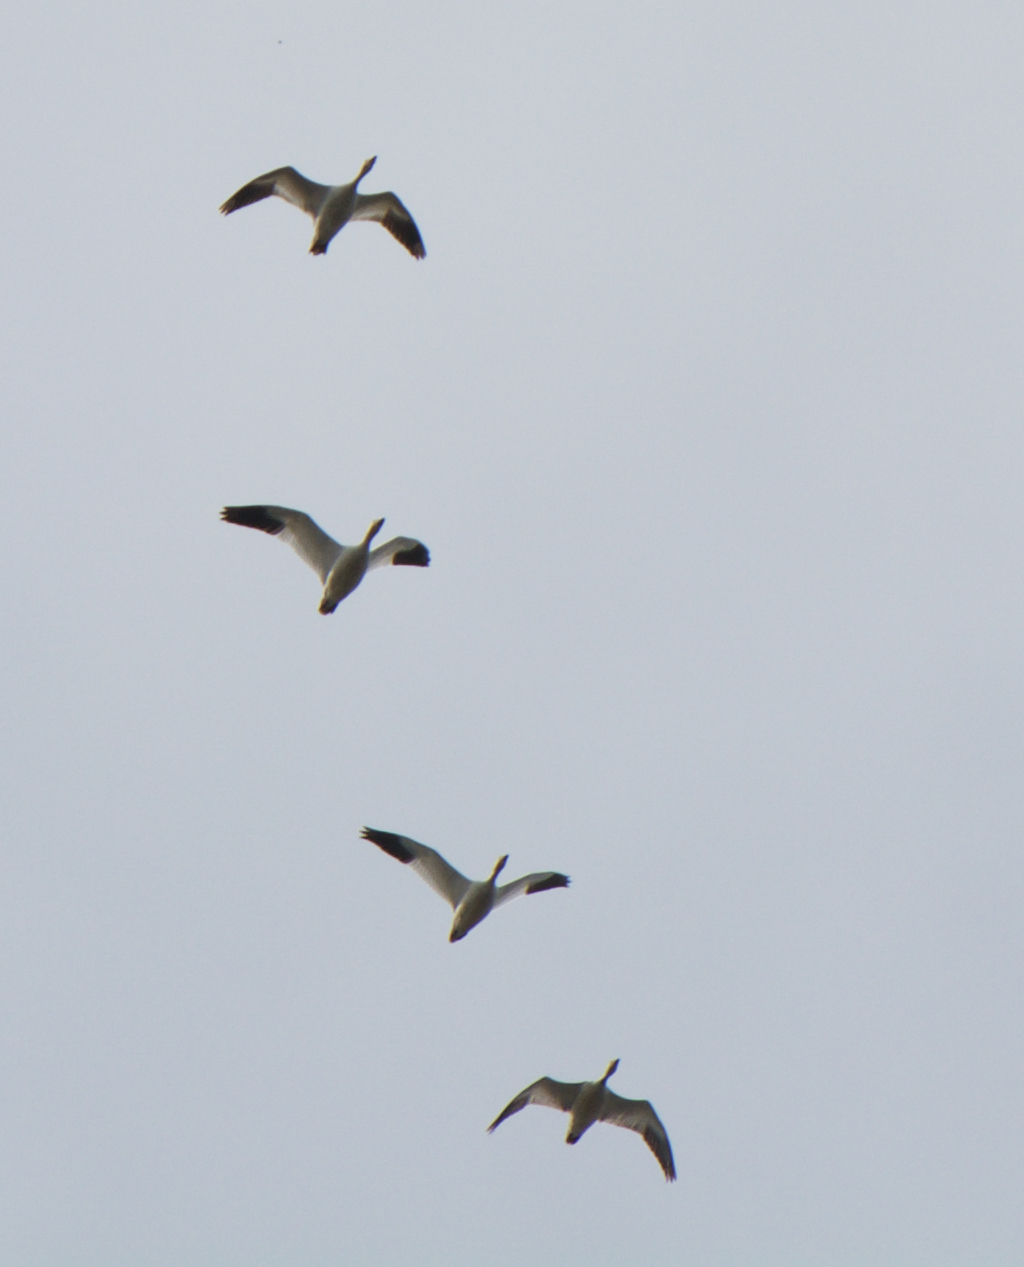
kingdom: Animalia
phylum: Chordata
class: Aves
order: Anseriformes
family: Anatidae
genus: Anser
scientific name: Anser caerulescens
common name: Snow goose
